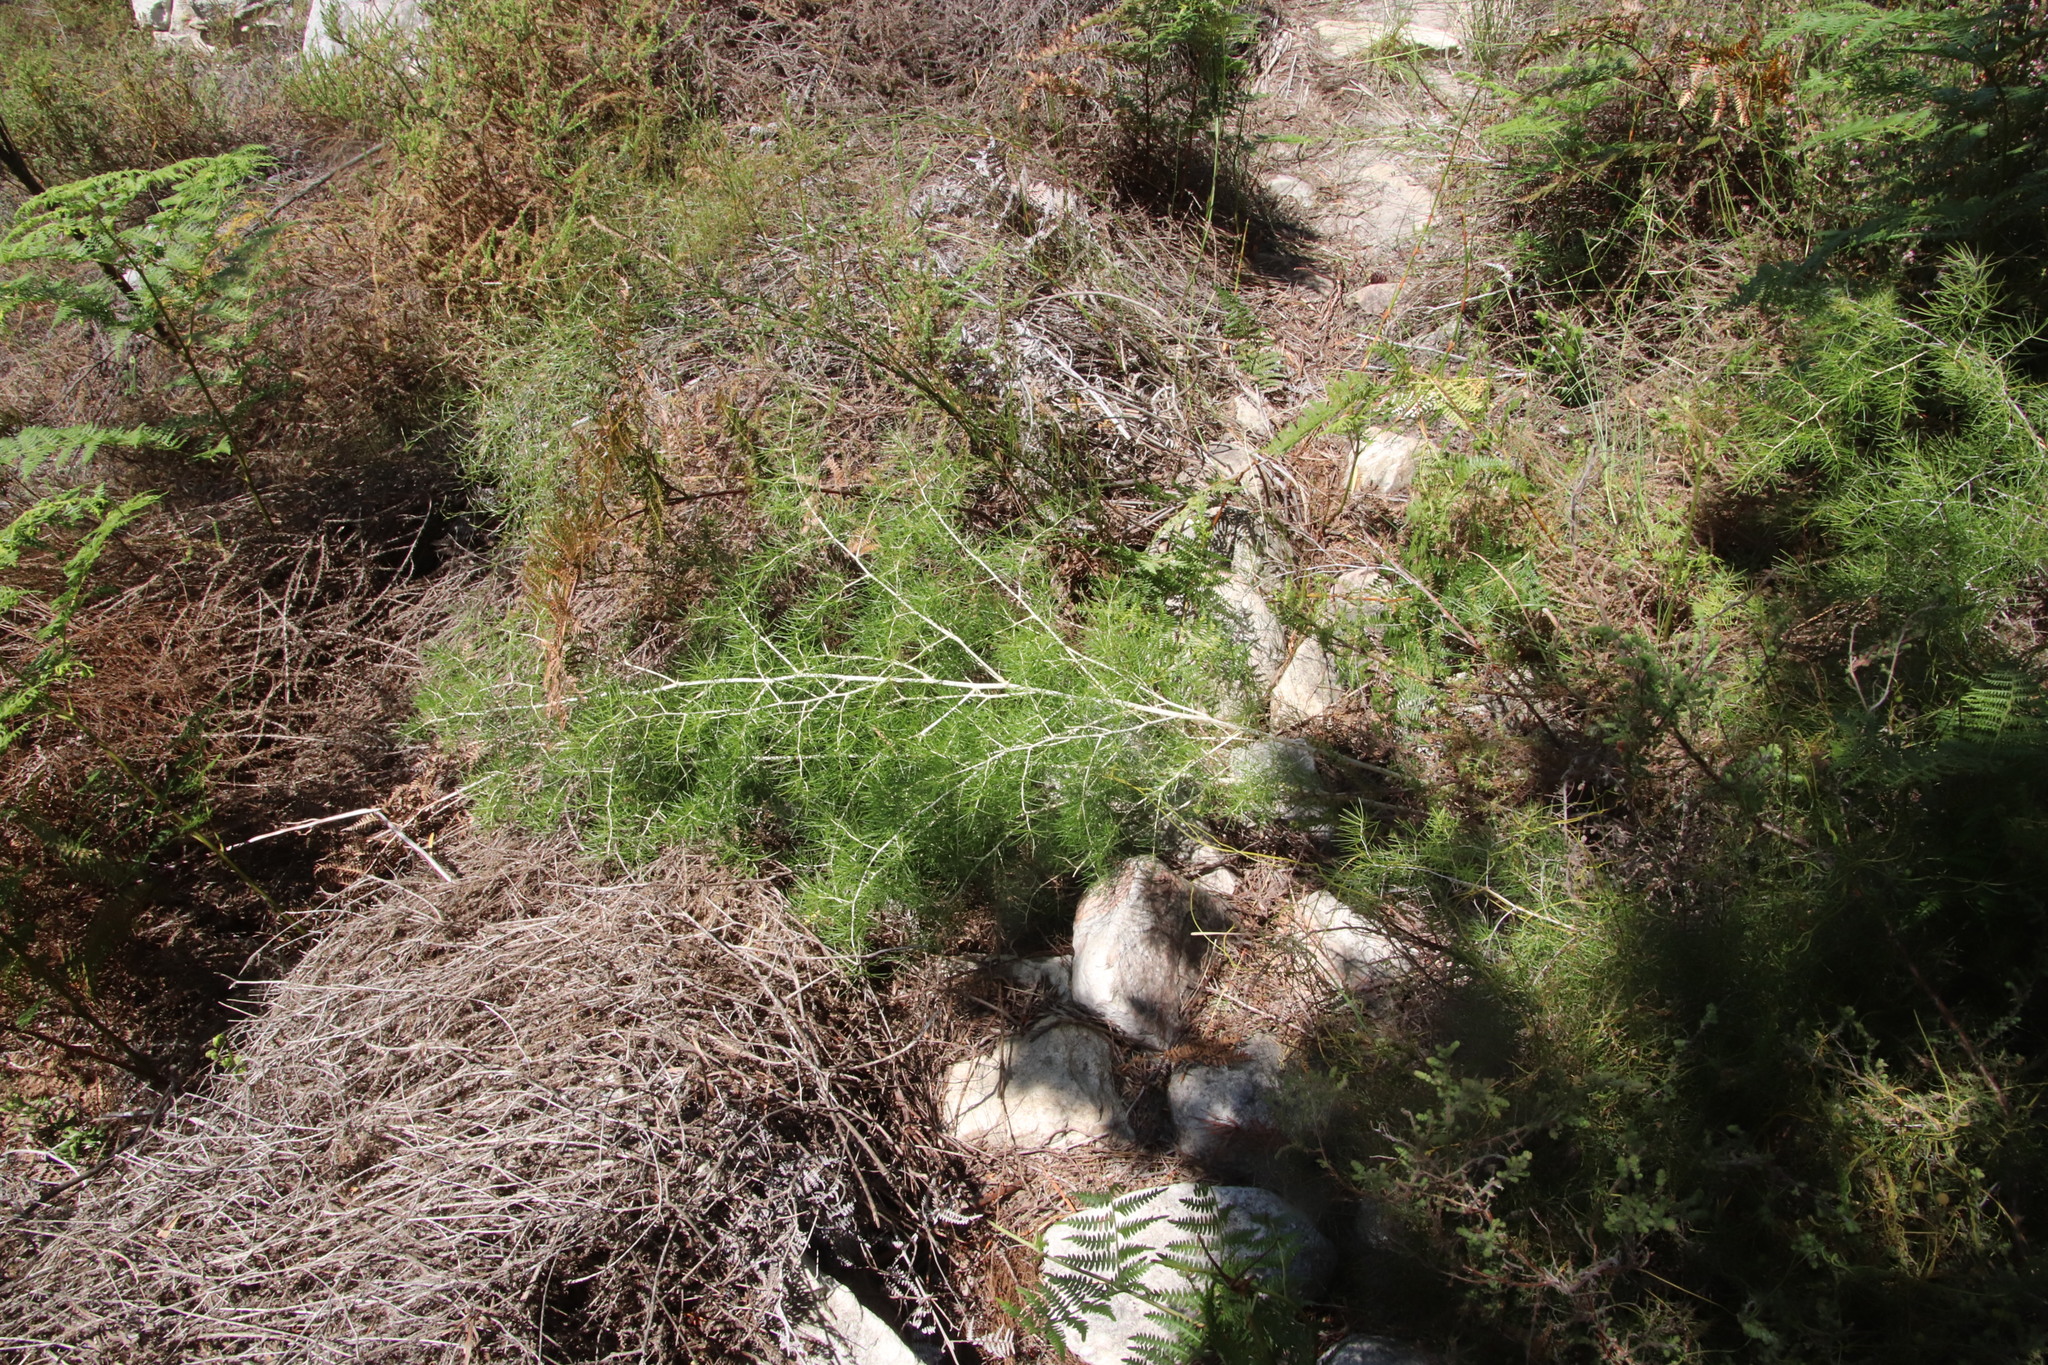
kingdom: Plantae
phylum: Tracheophyta
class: Liliopsida
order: Asparagales
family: Asparagaceae
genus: Asparagus
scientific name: Asparagus lignosus
